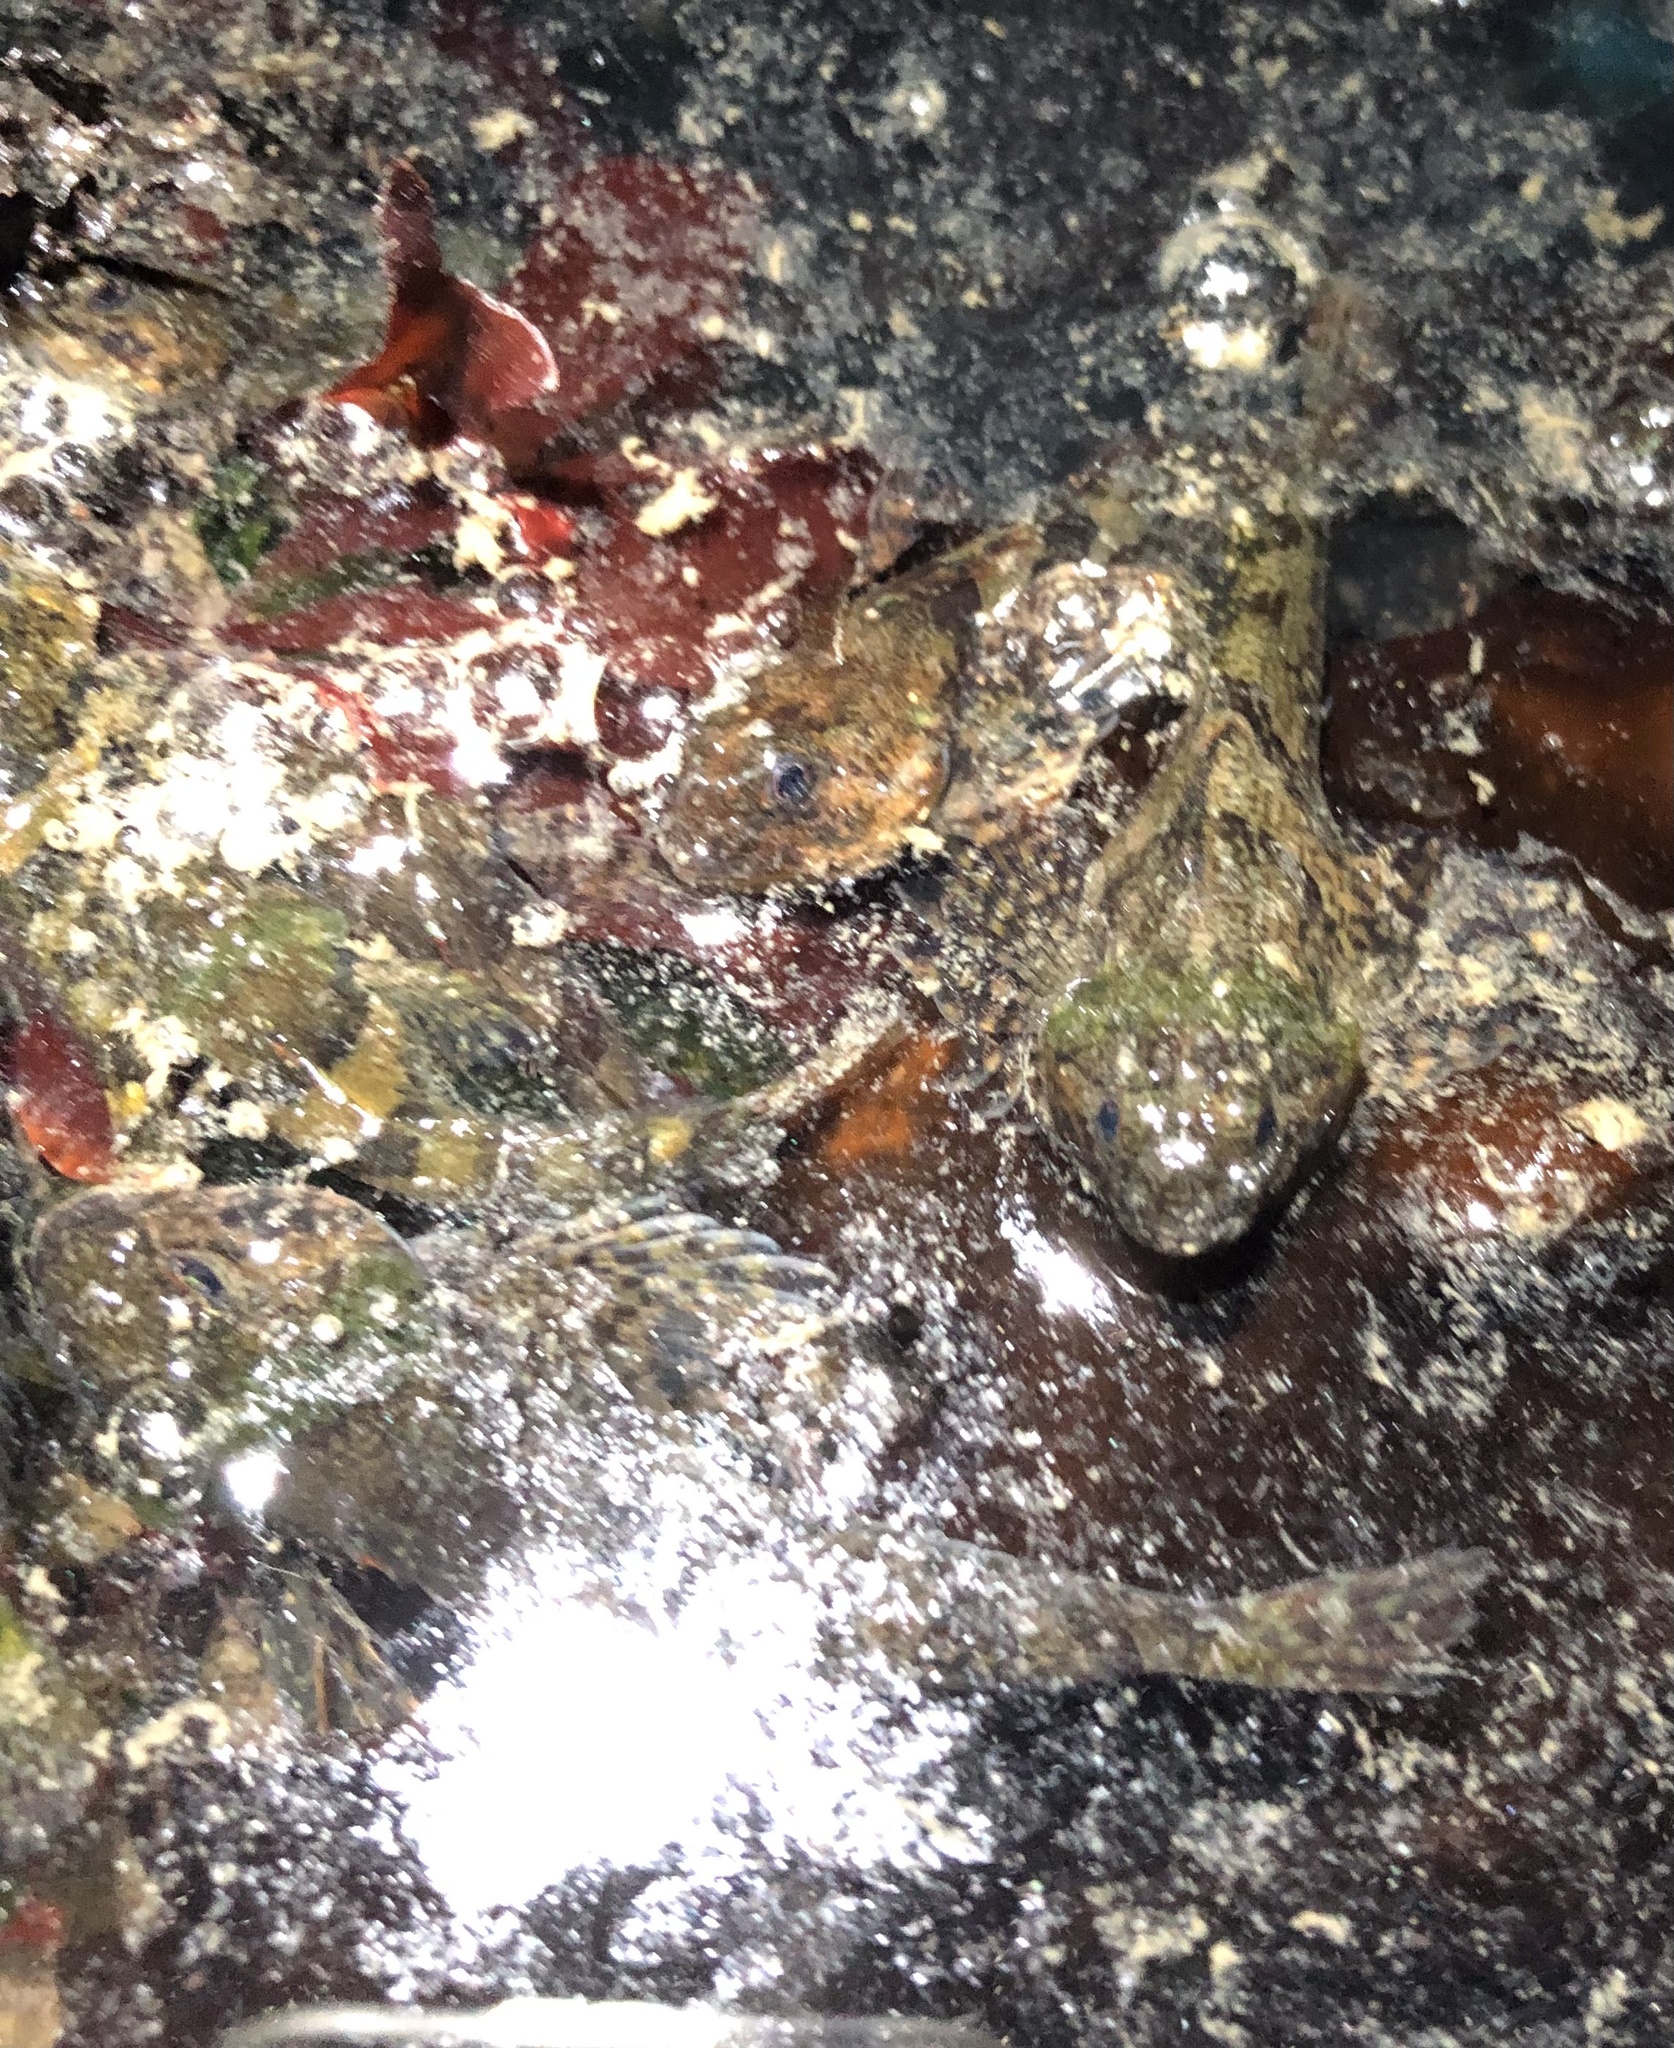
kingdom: Animalia
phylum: Chordata
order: Scorpaeniformes
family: Cottidae
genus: Oligocottus
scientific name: Oligocottus maculosus
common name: Tidepool sculpin
